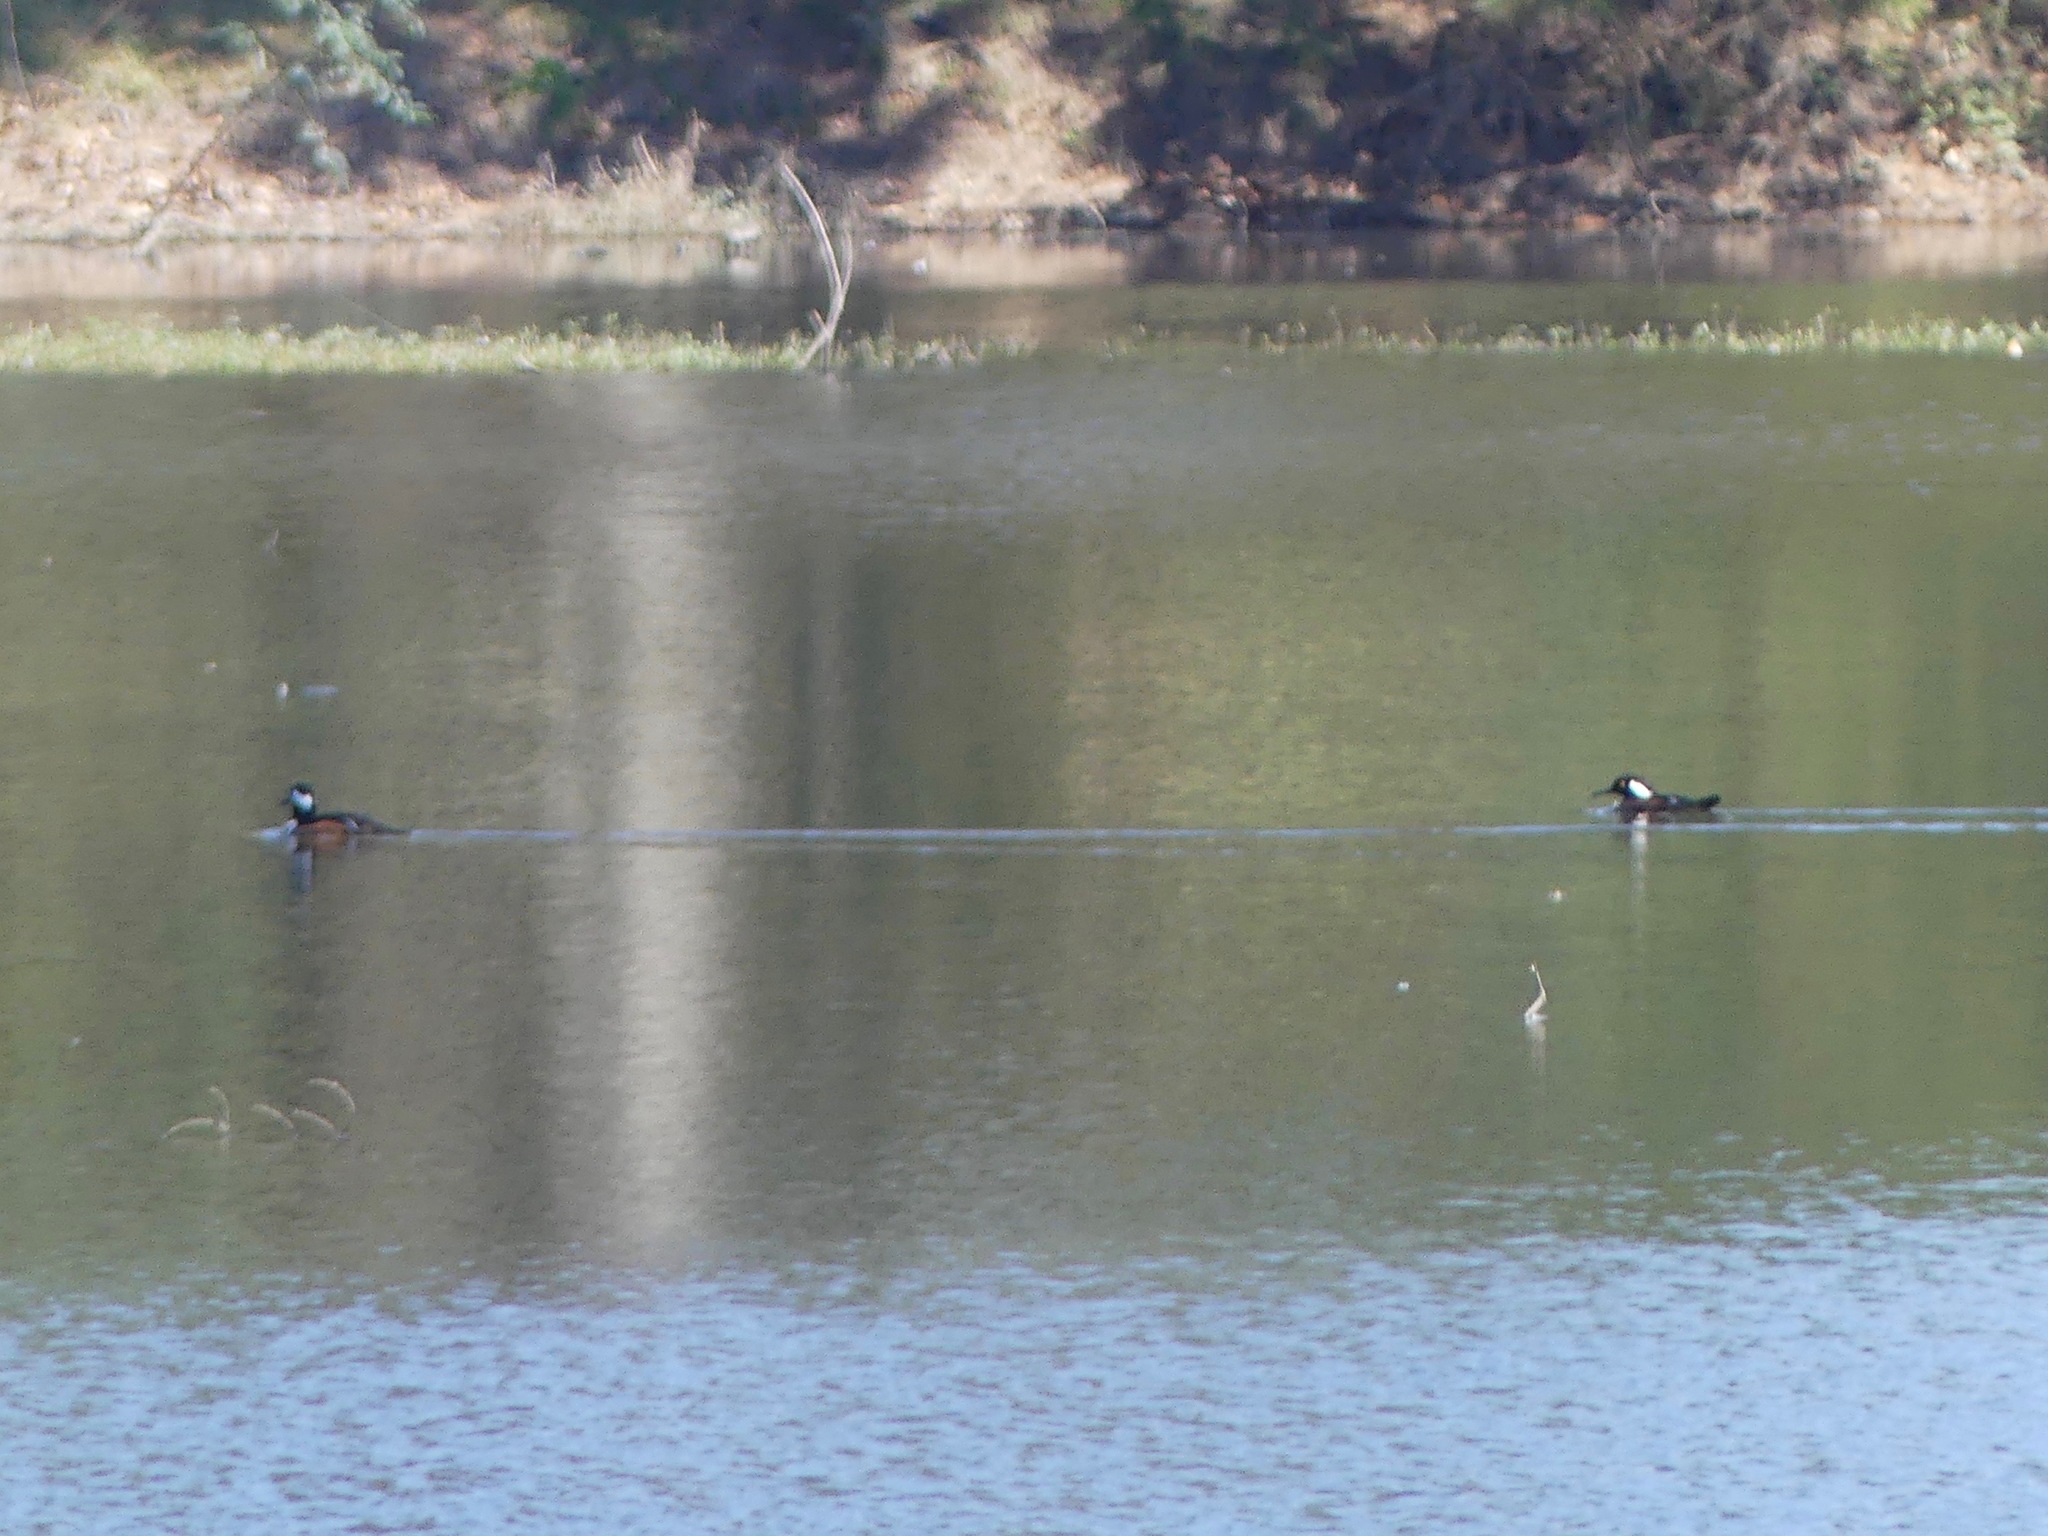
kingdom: Animalia
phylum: Chordata
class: Aves
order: Anseriformes
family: Anatidae
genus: Lophodytes
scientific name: Lophodytes cucullatus
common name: Hooded merganser
